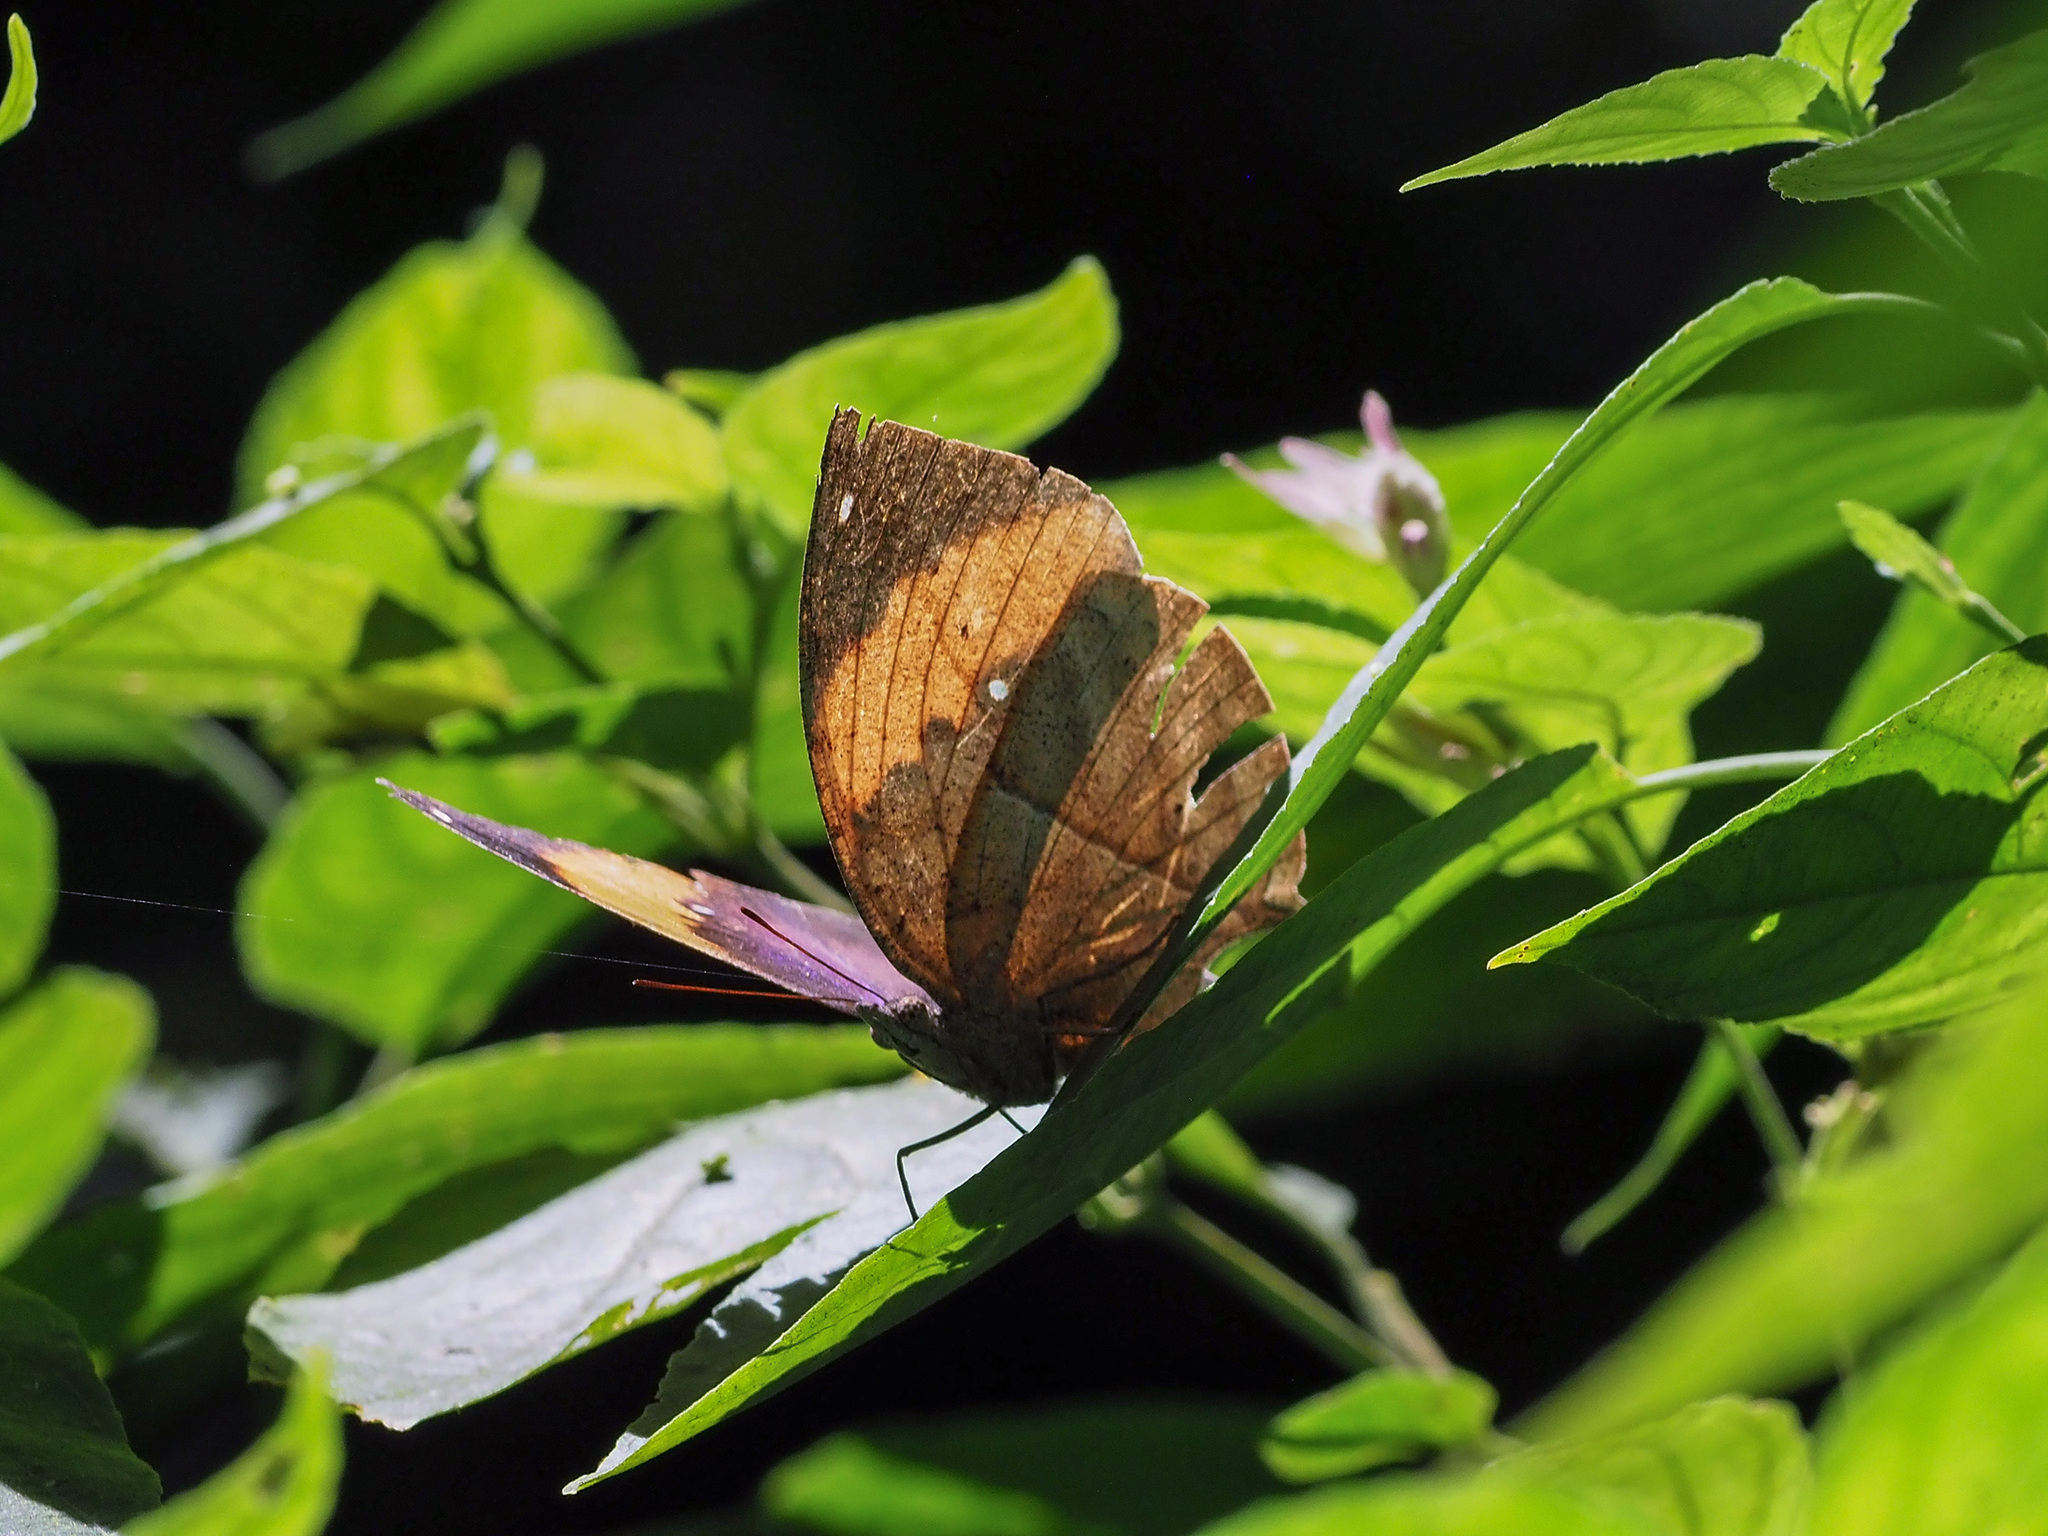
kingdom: Animalia
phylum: Arthropoda
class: Insecta
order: Lepidoptera
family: Nymphalidae
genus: Kallima
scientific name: Kallima
